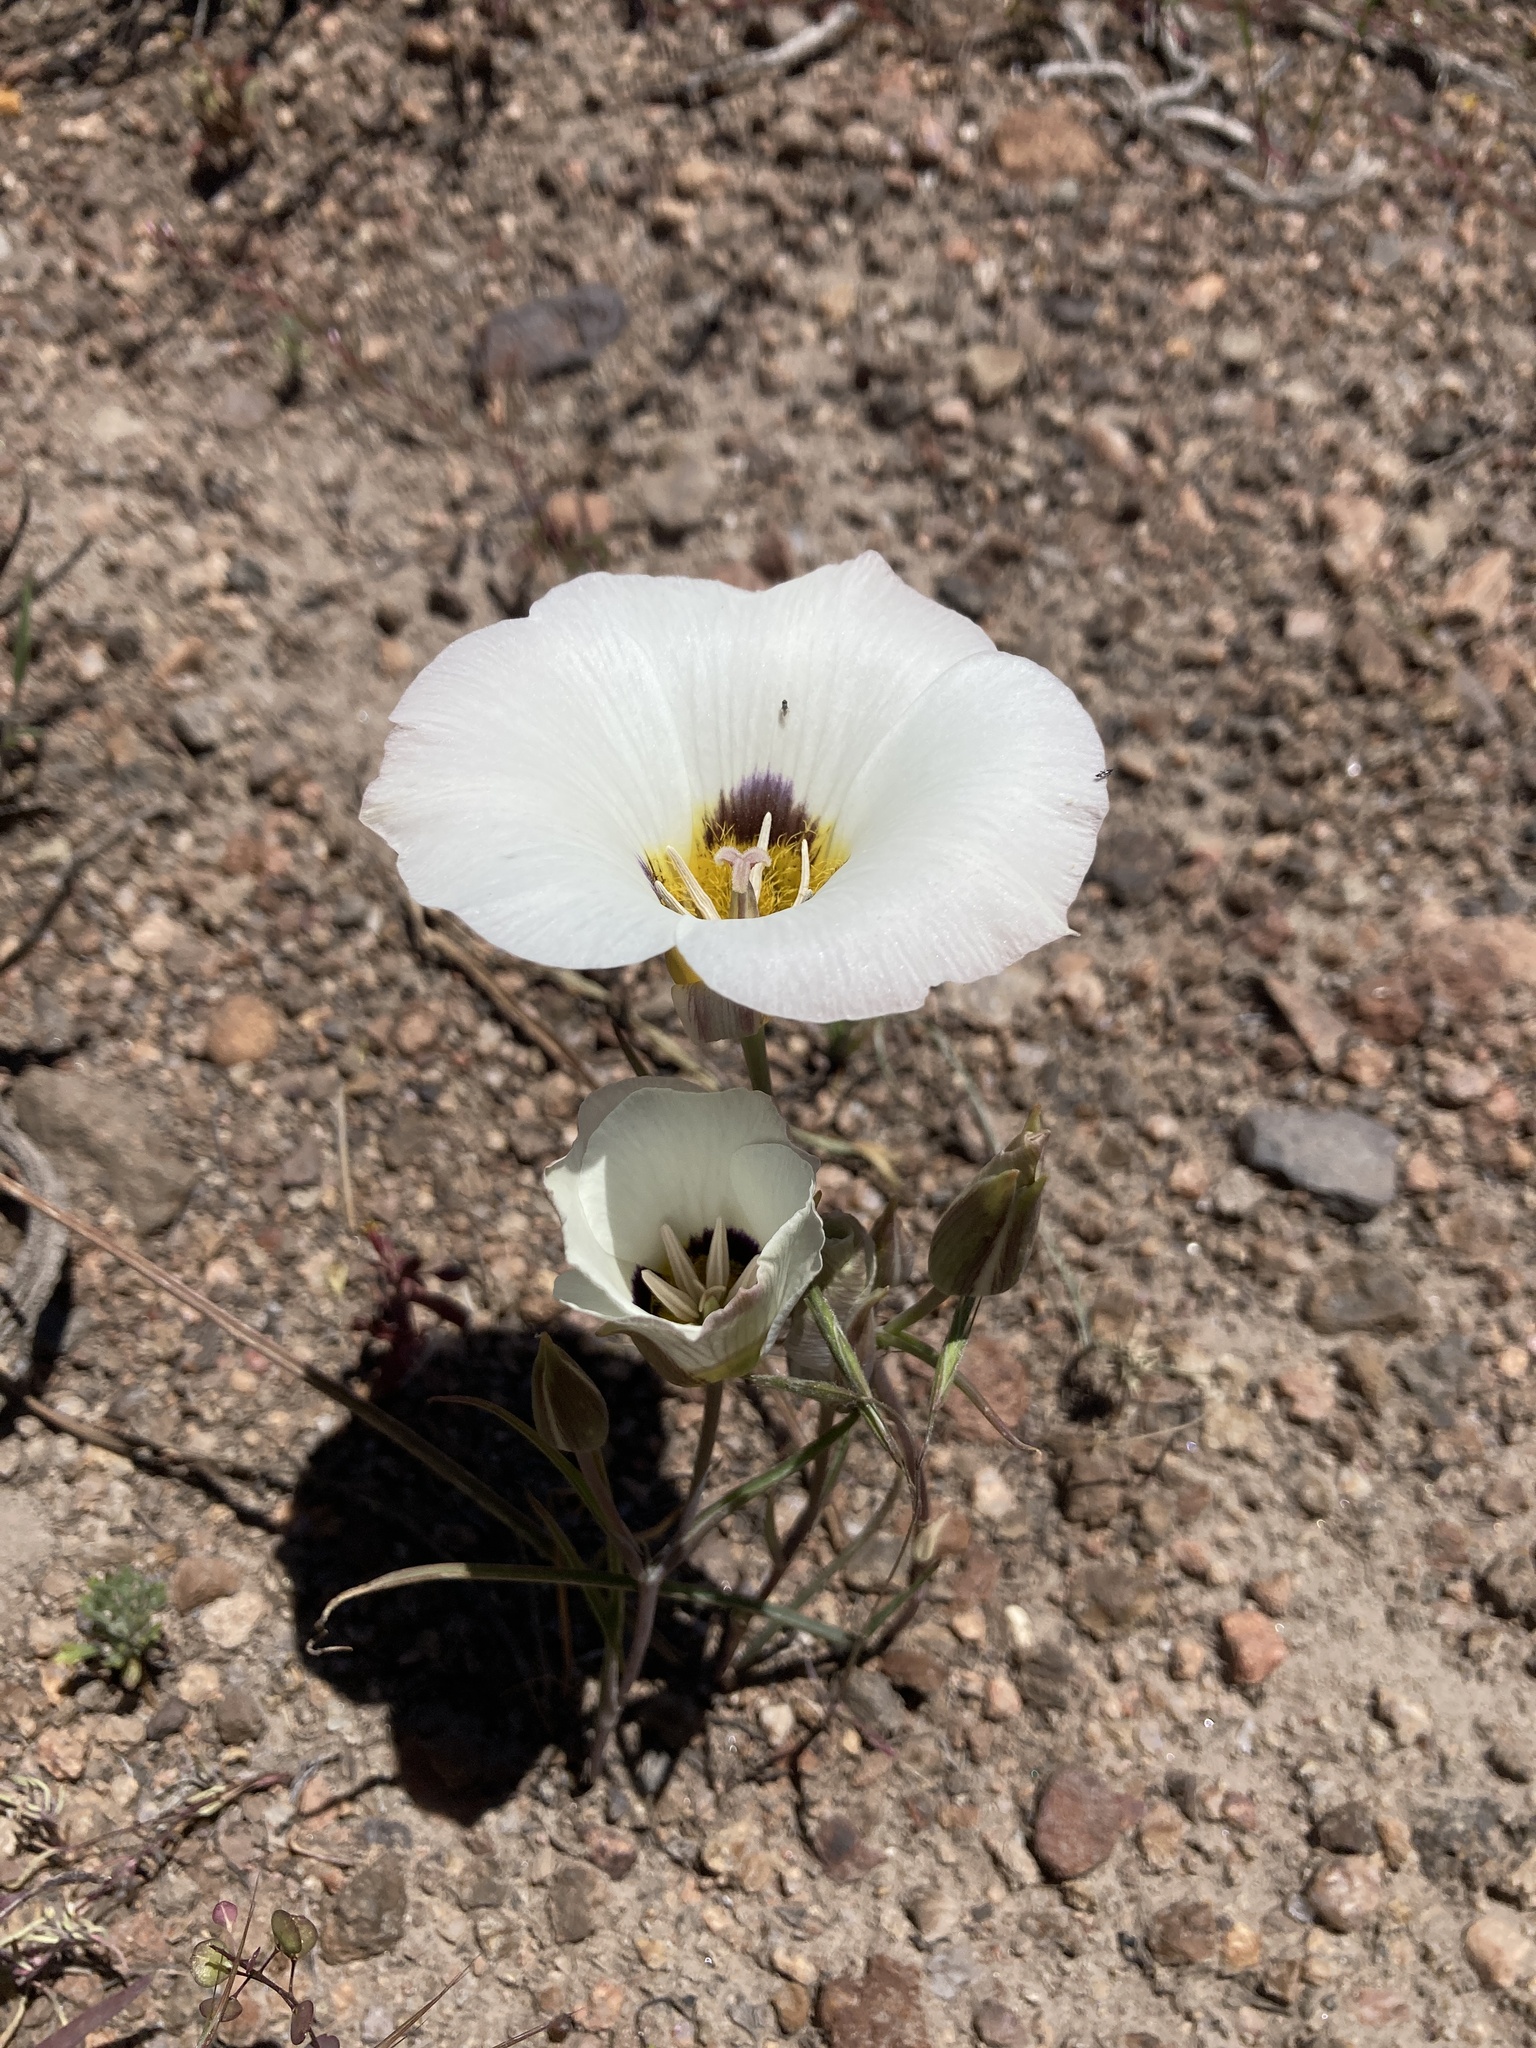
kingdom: Plantae
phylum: Tracheophyta
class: Liliopsida
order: Liliales
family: Liliaceae
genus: Calochortus
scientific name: Calochortus leichtlinii
